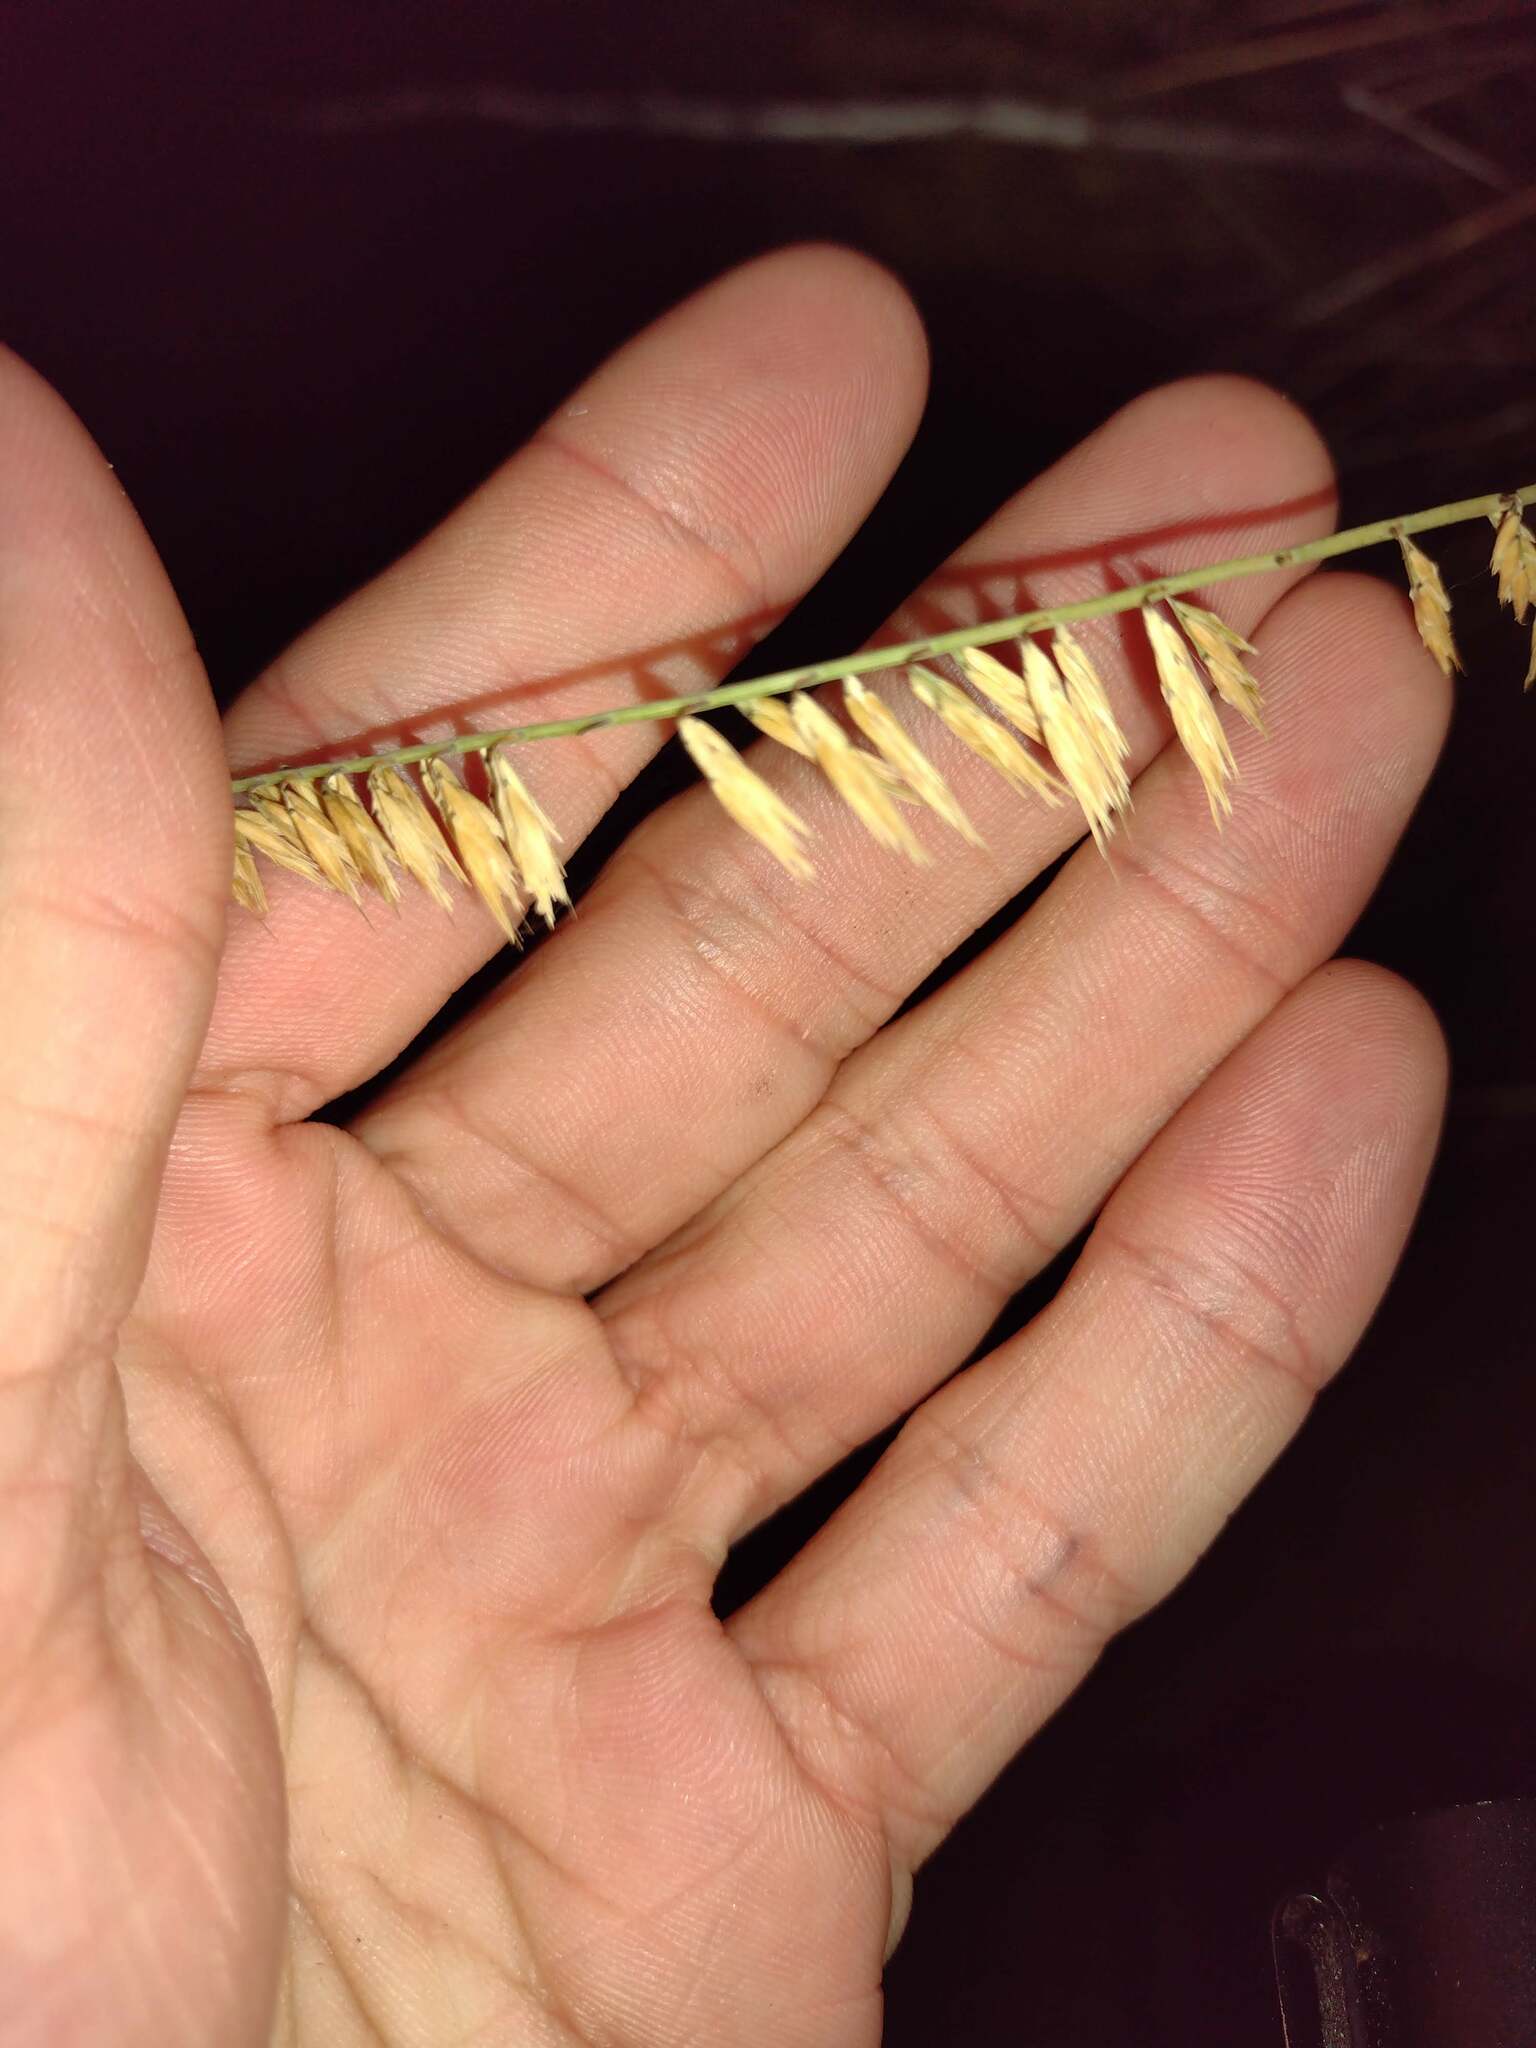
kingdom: Plantae
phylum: Tracheophyta
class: Liliopsida
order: Poales
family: Poaceae
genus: Bouteloua
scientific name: Bouteloua curtipendula
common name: Side-oats grama
